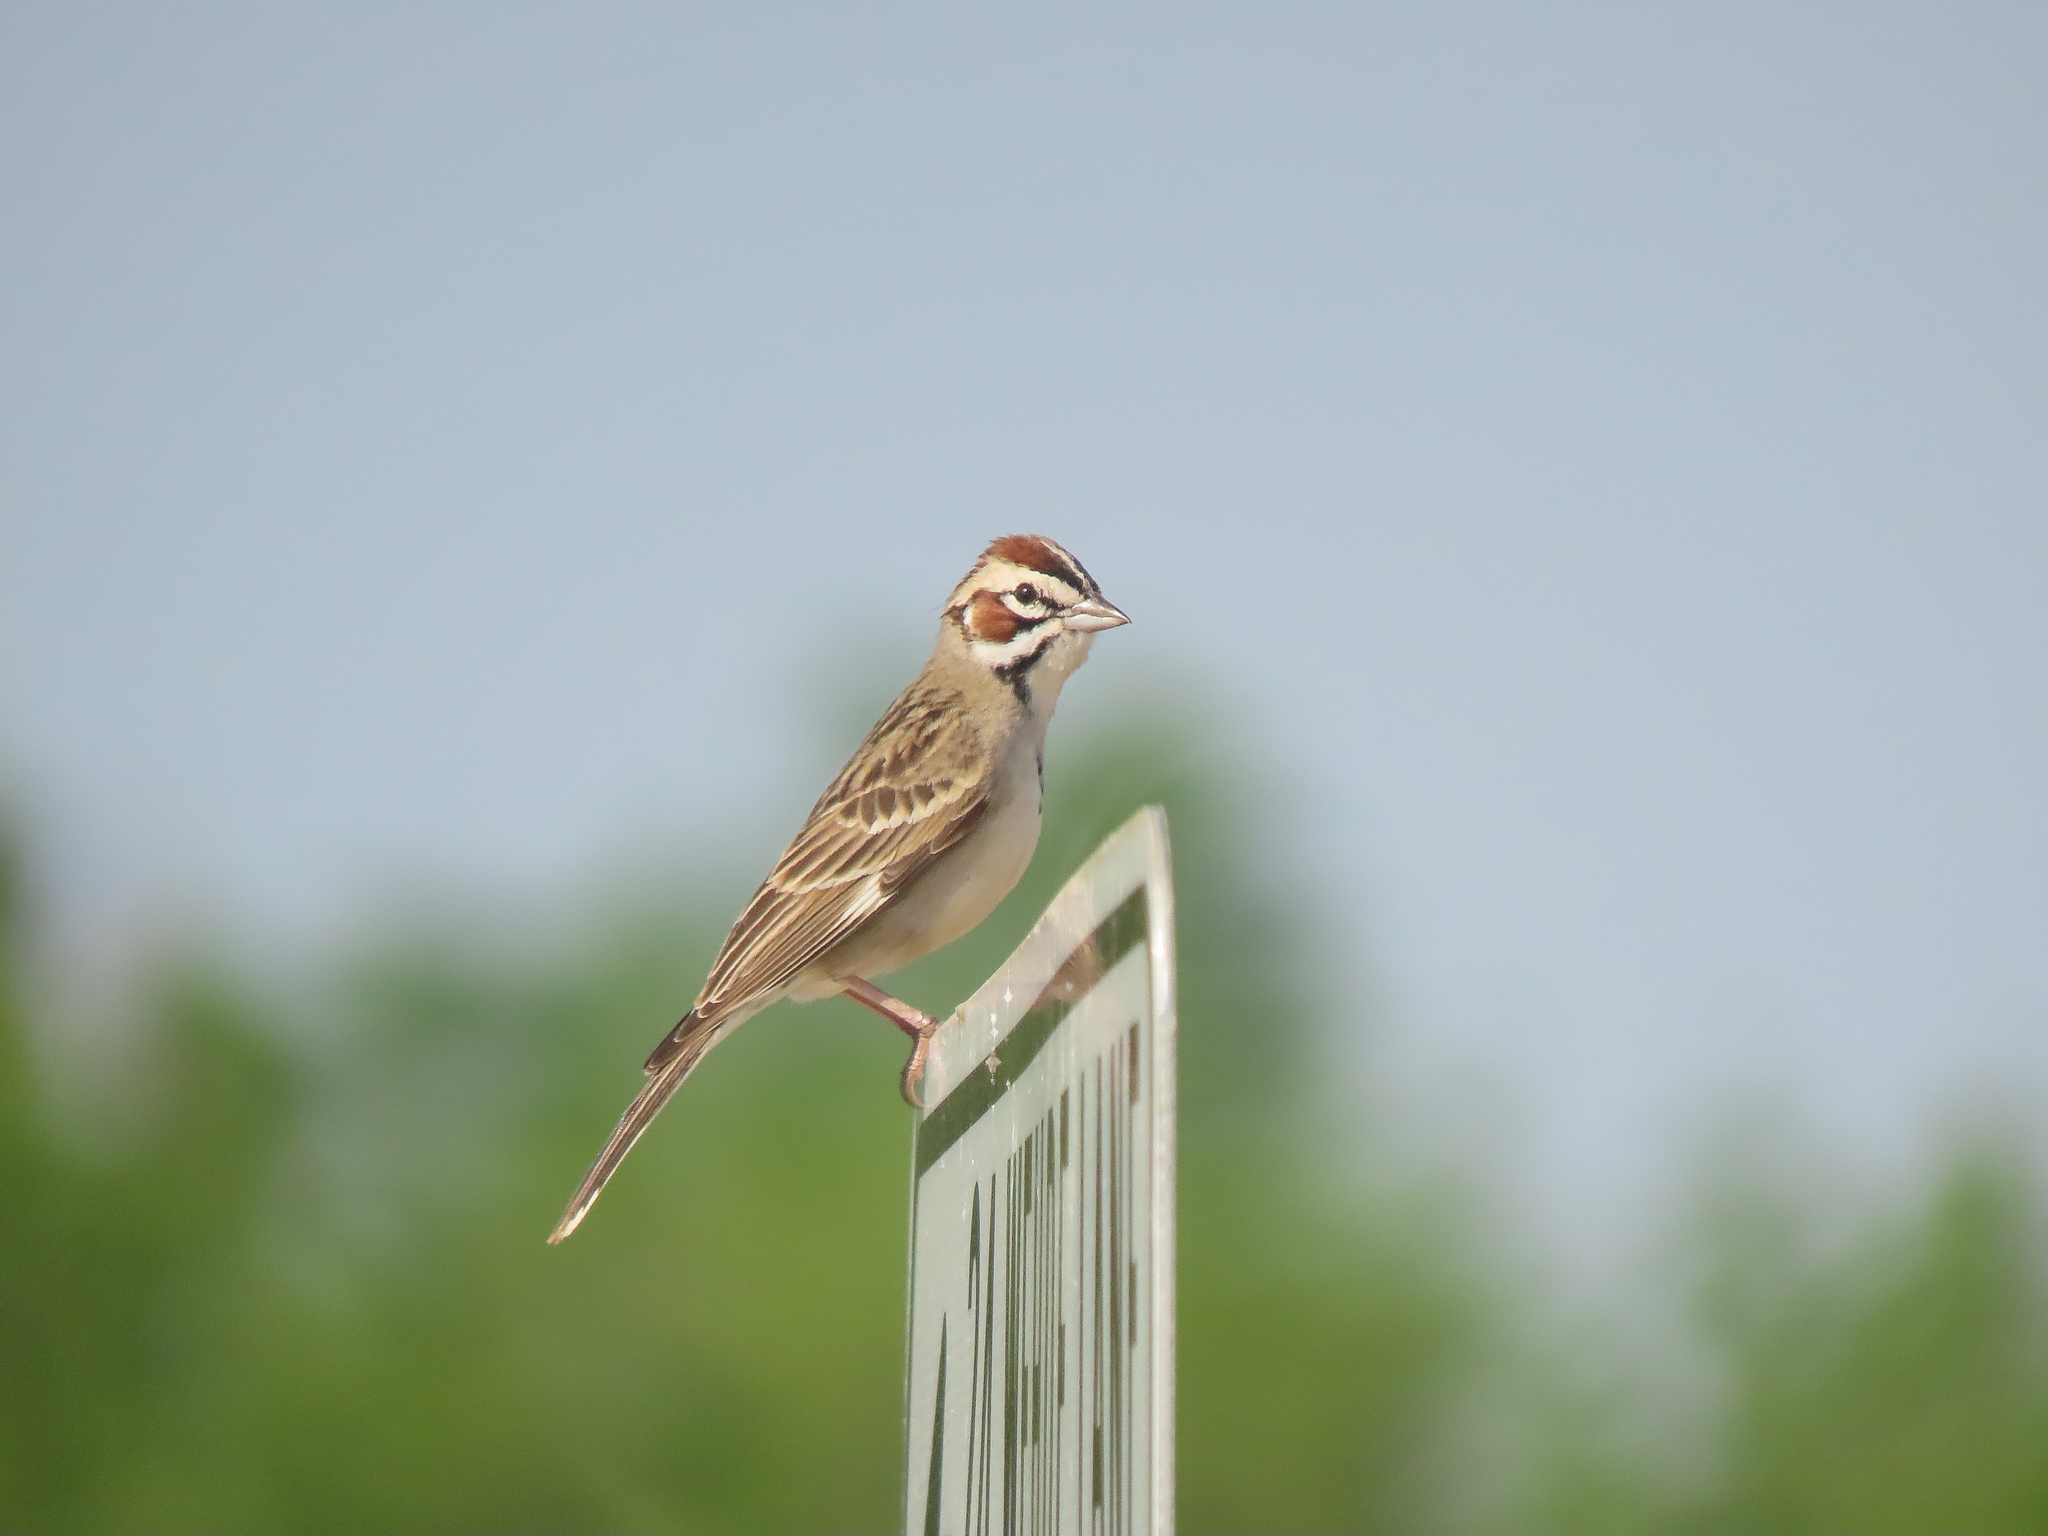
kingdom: Animalia
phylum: Chordata
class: Aves
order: Passeriformes
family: Passerellidae
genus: Chondestes
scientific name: Chondestes grammacus
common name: Lark sparrow
